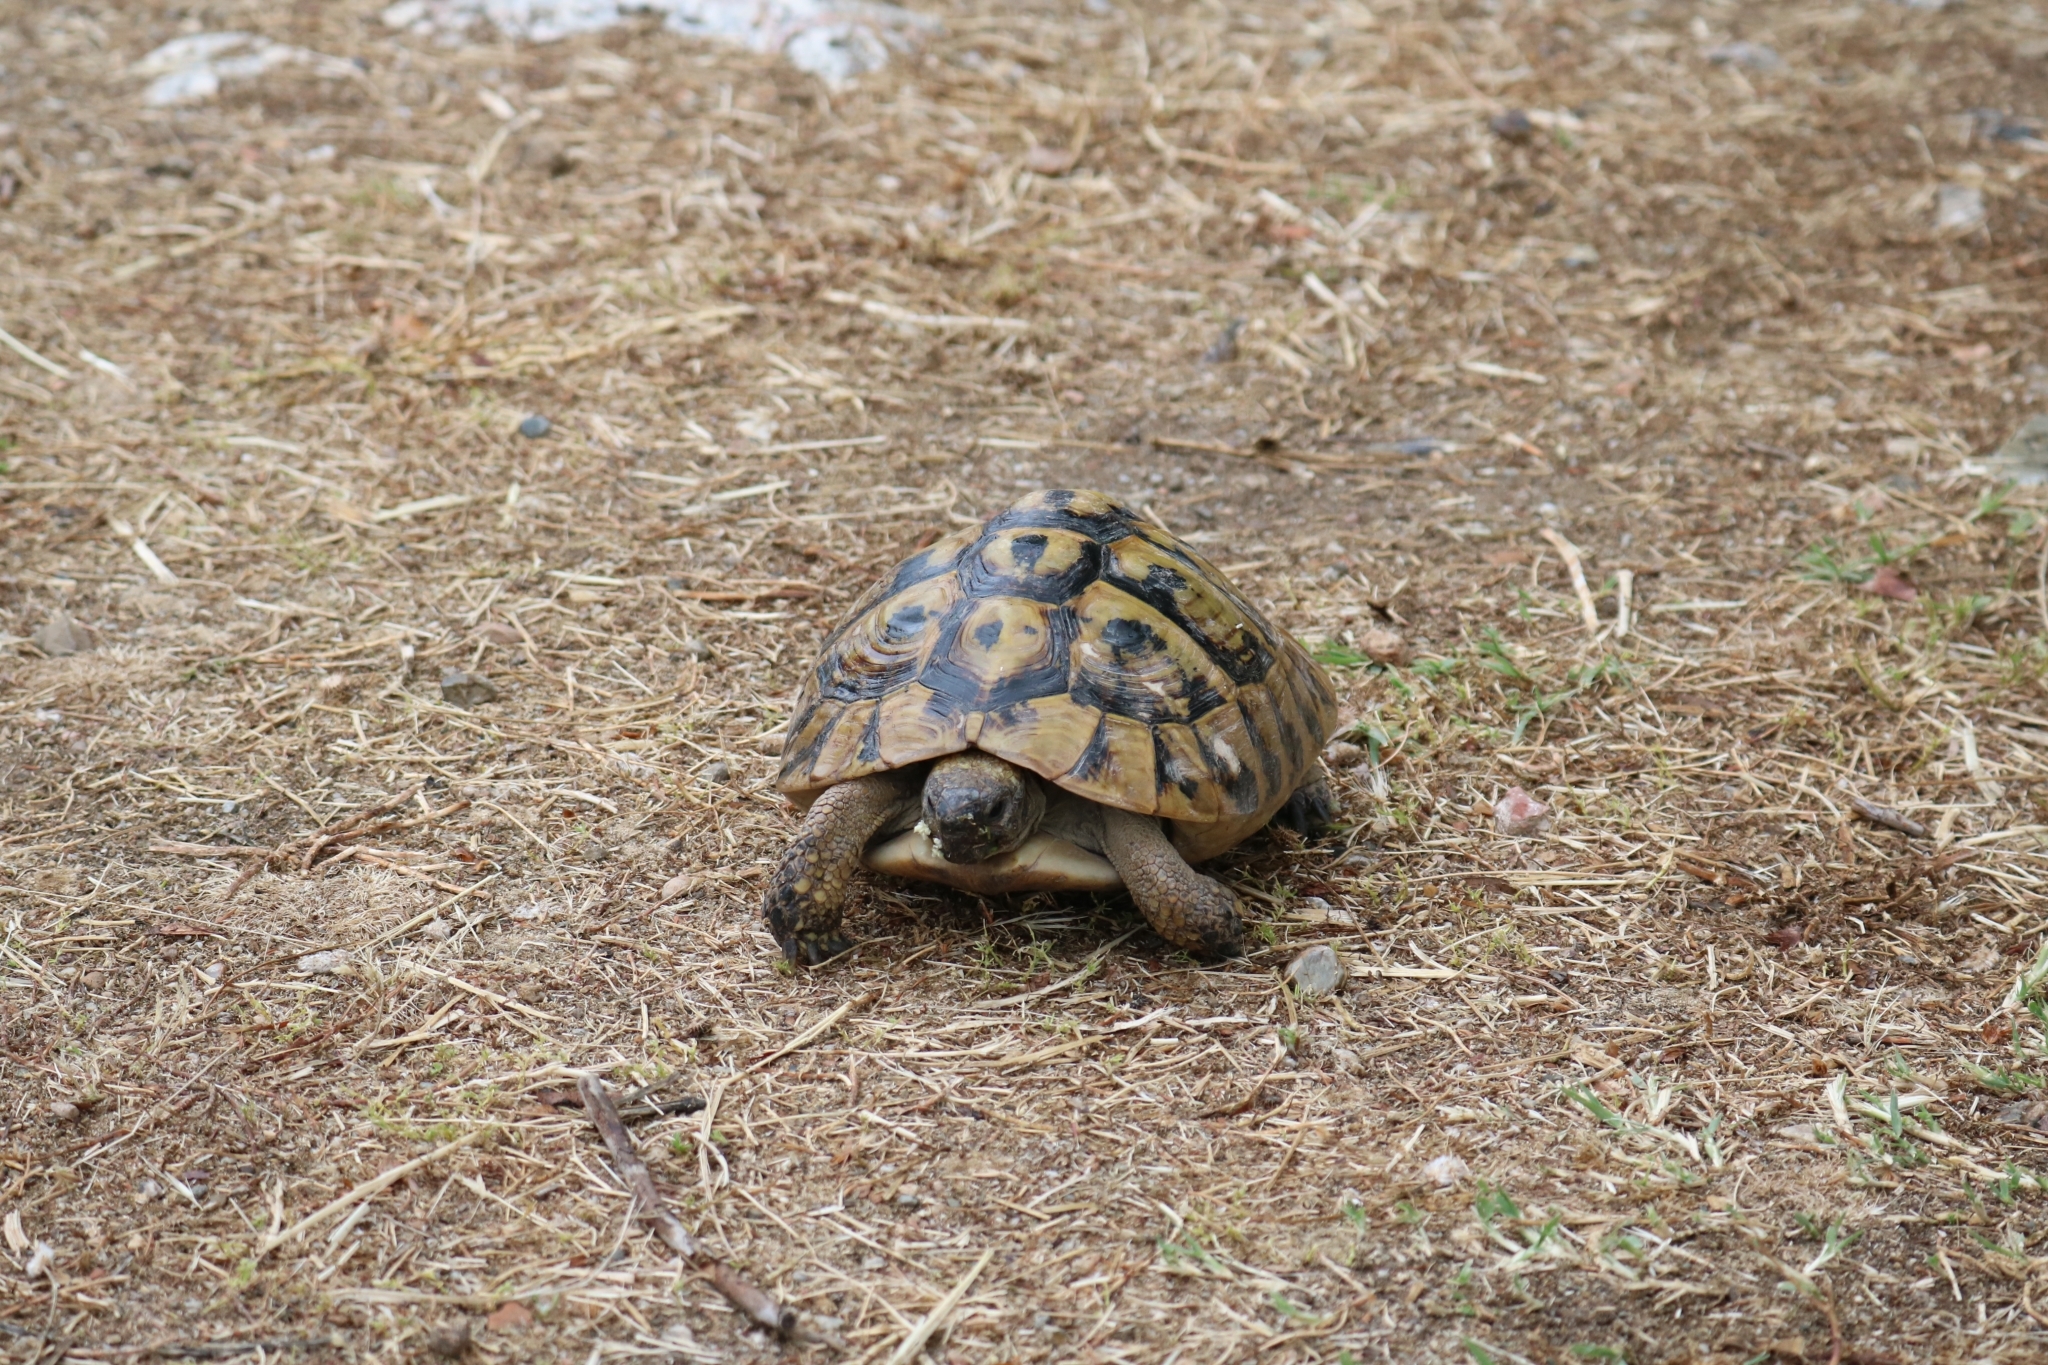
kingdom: Animalia
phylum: Chordata
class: Testudines
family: Testudinidae
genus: Testudo
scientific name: Testudo hermanni
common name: Hermann's tortoise
